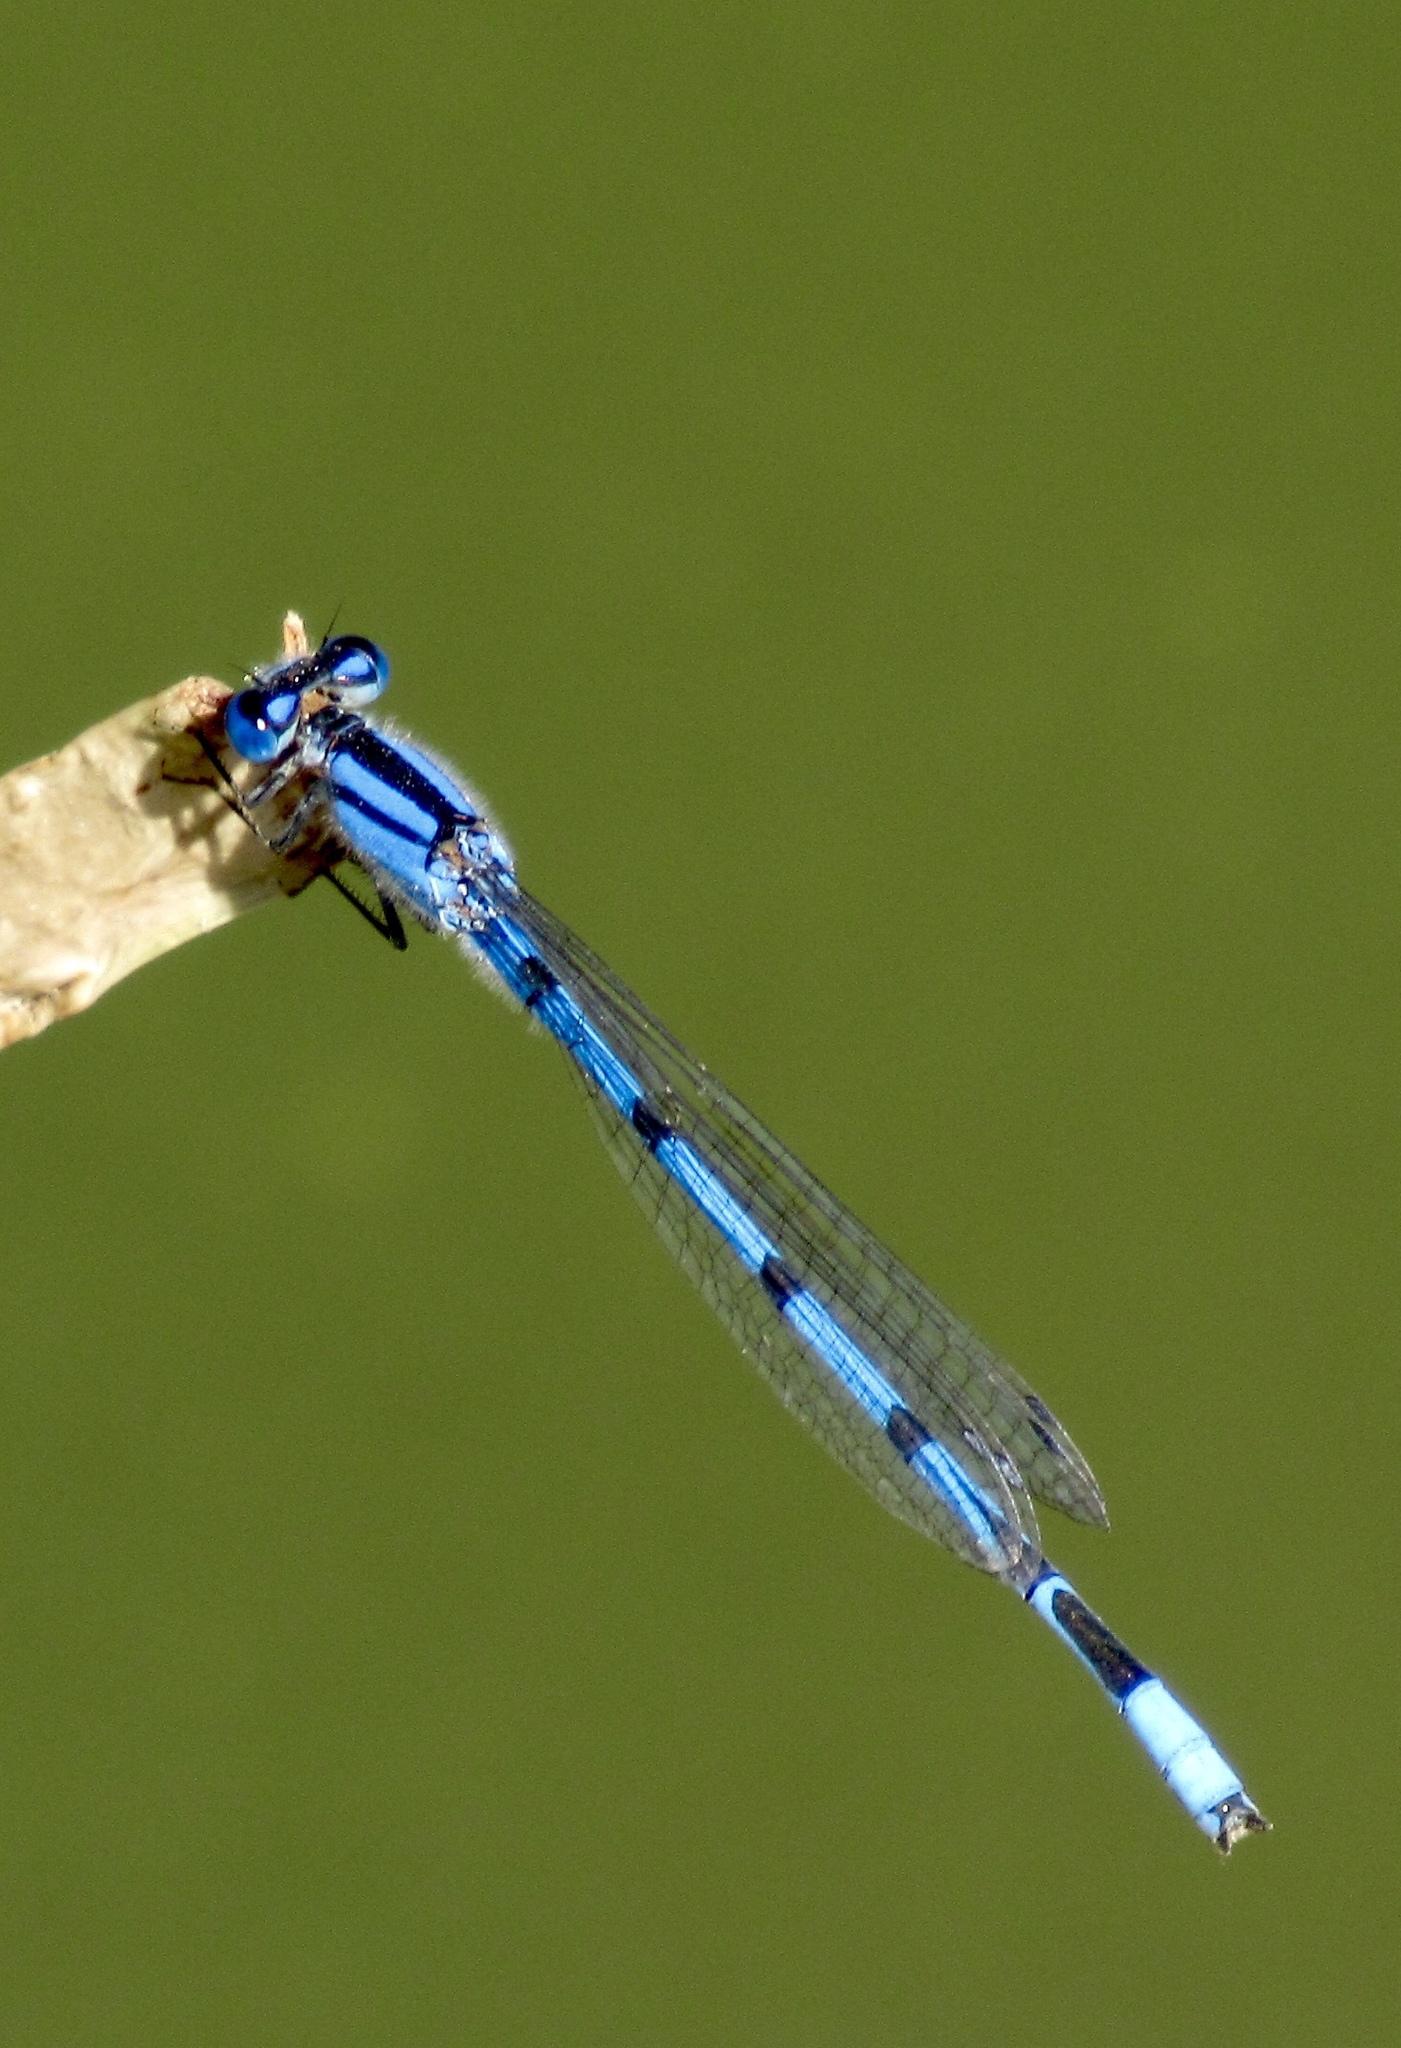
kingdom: Animalia
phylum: Arthropoda
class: Insecta
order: Odonata
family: Coenagrionidae
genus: Enallagma
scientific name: Enallagma civile
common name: Damselfly
